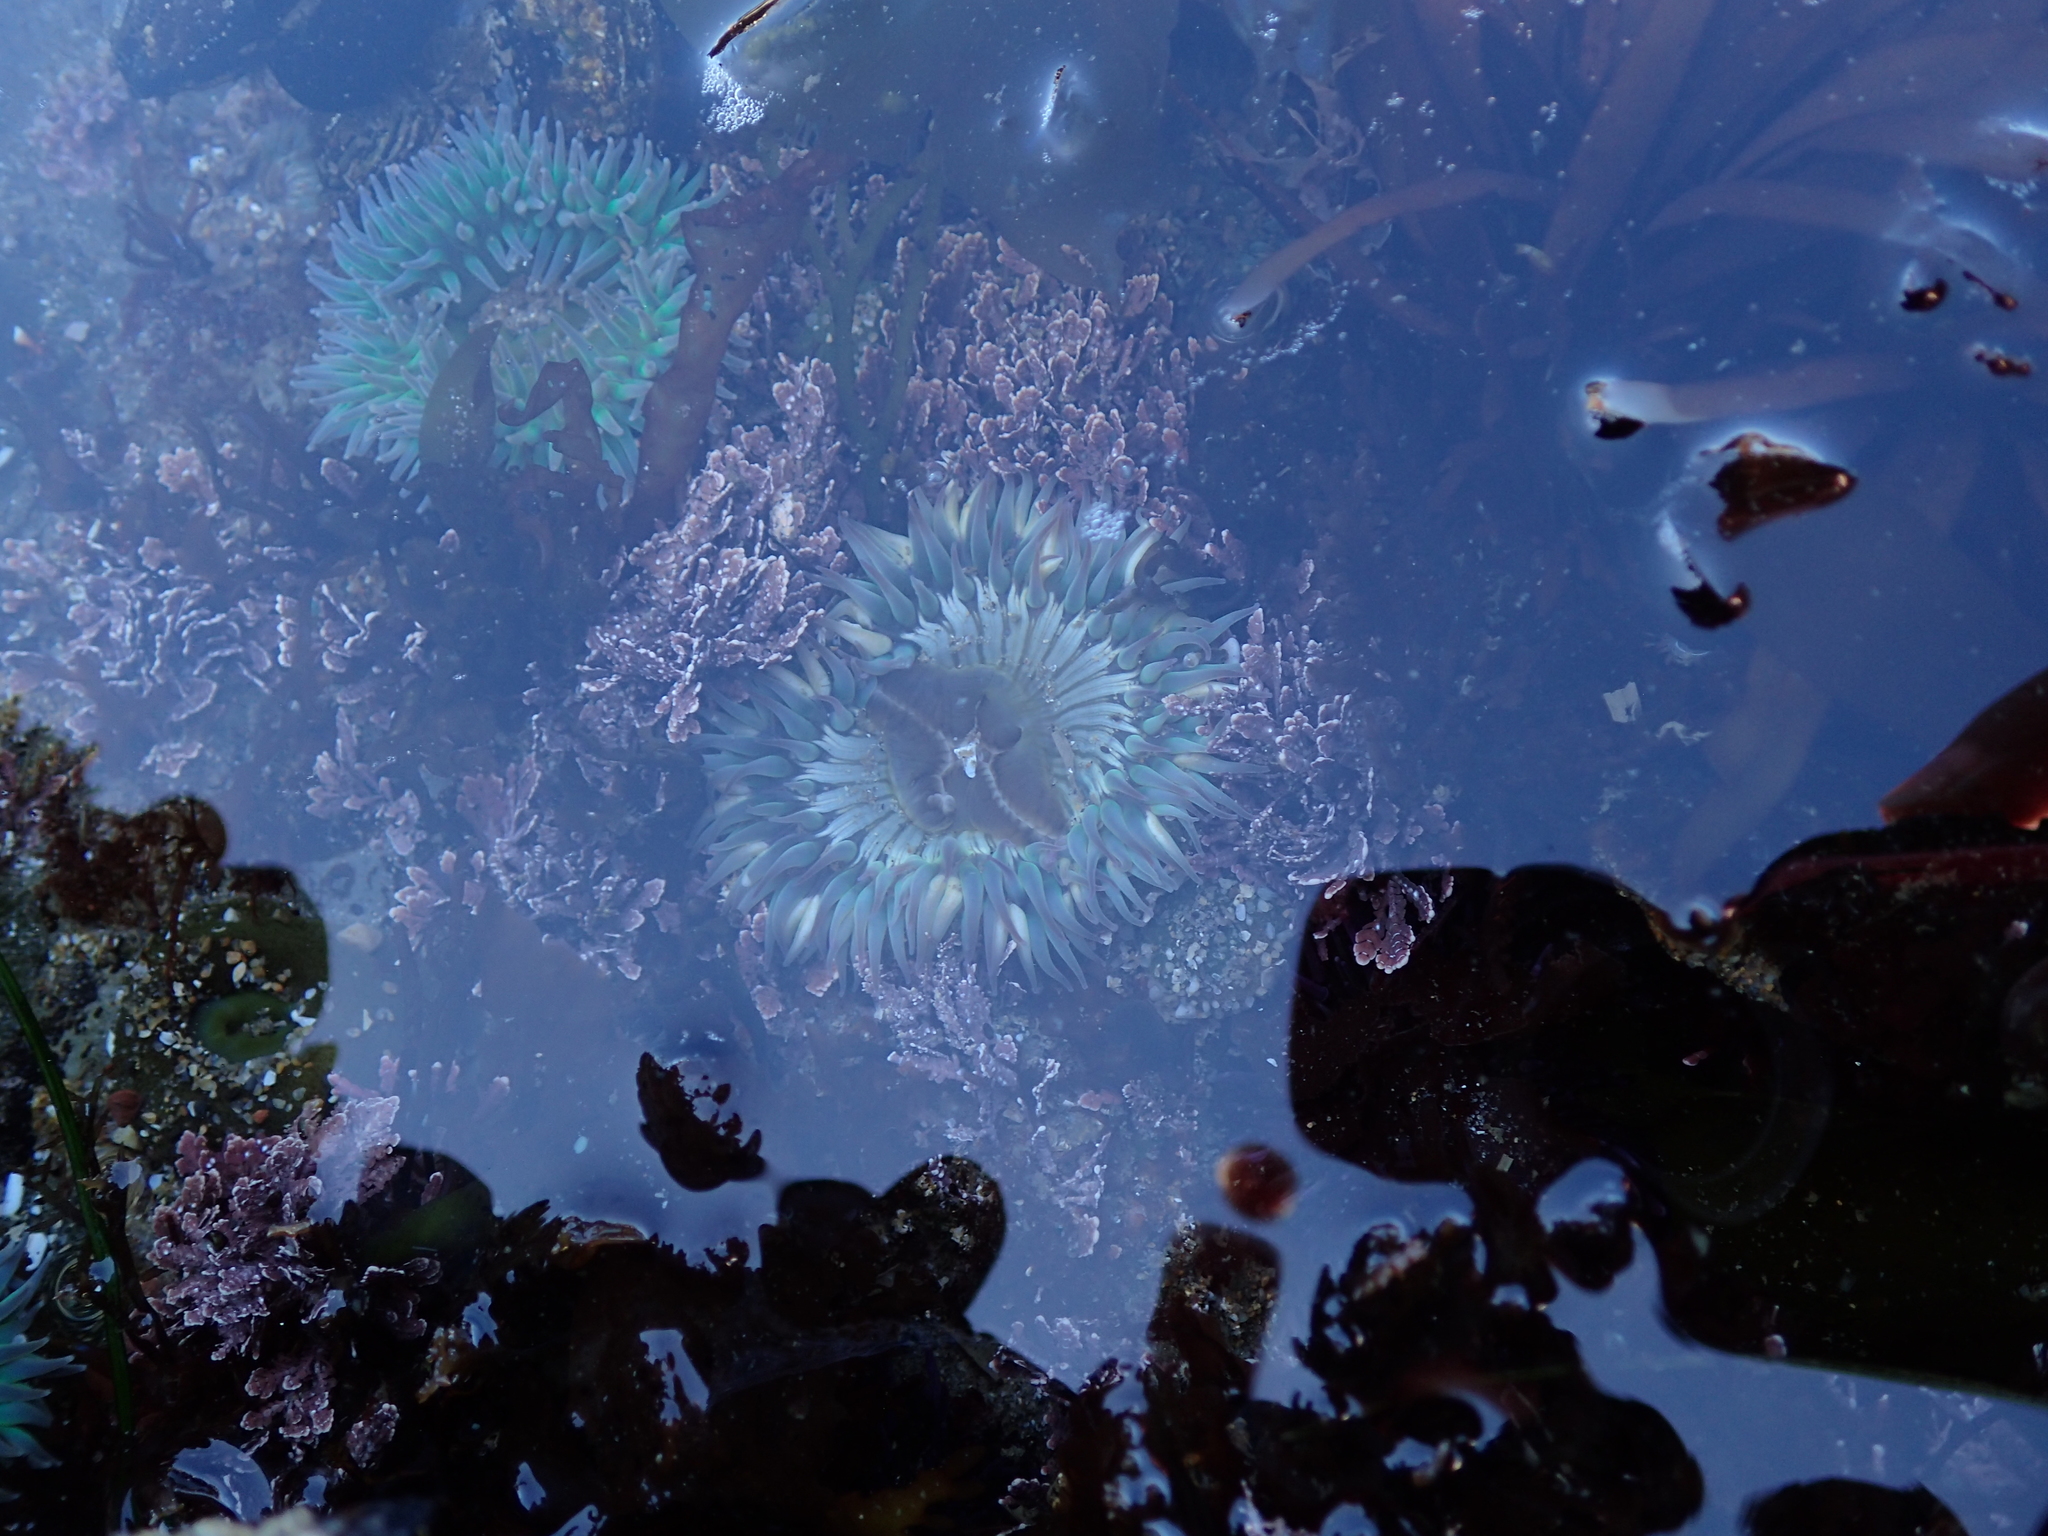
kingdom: Animalia
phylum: Cnidaria
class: Anthozoa
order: Actiniaria
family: Actiniidae
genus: Anthopleura
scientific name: Anthopleura sola
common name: Sun anemone
